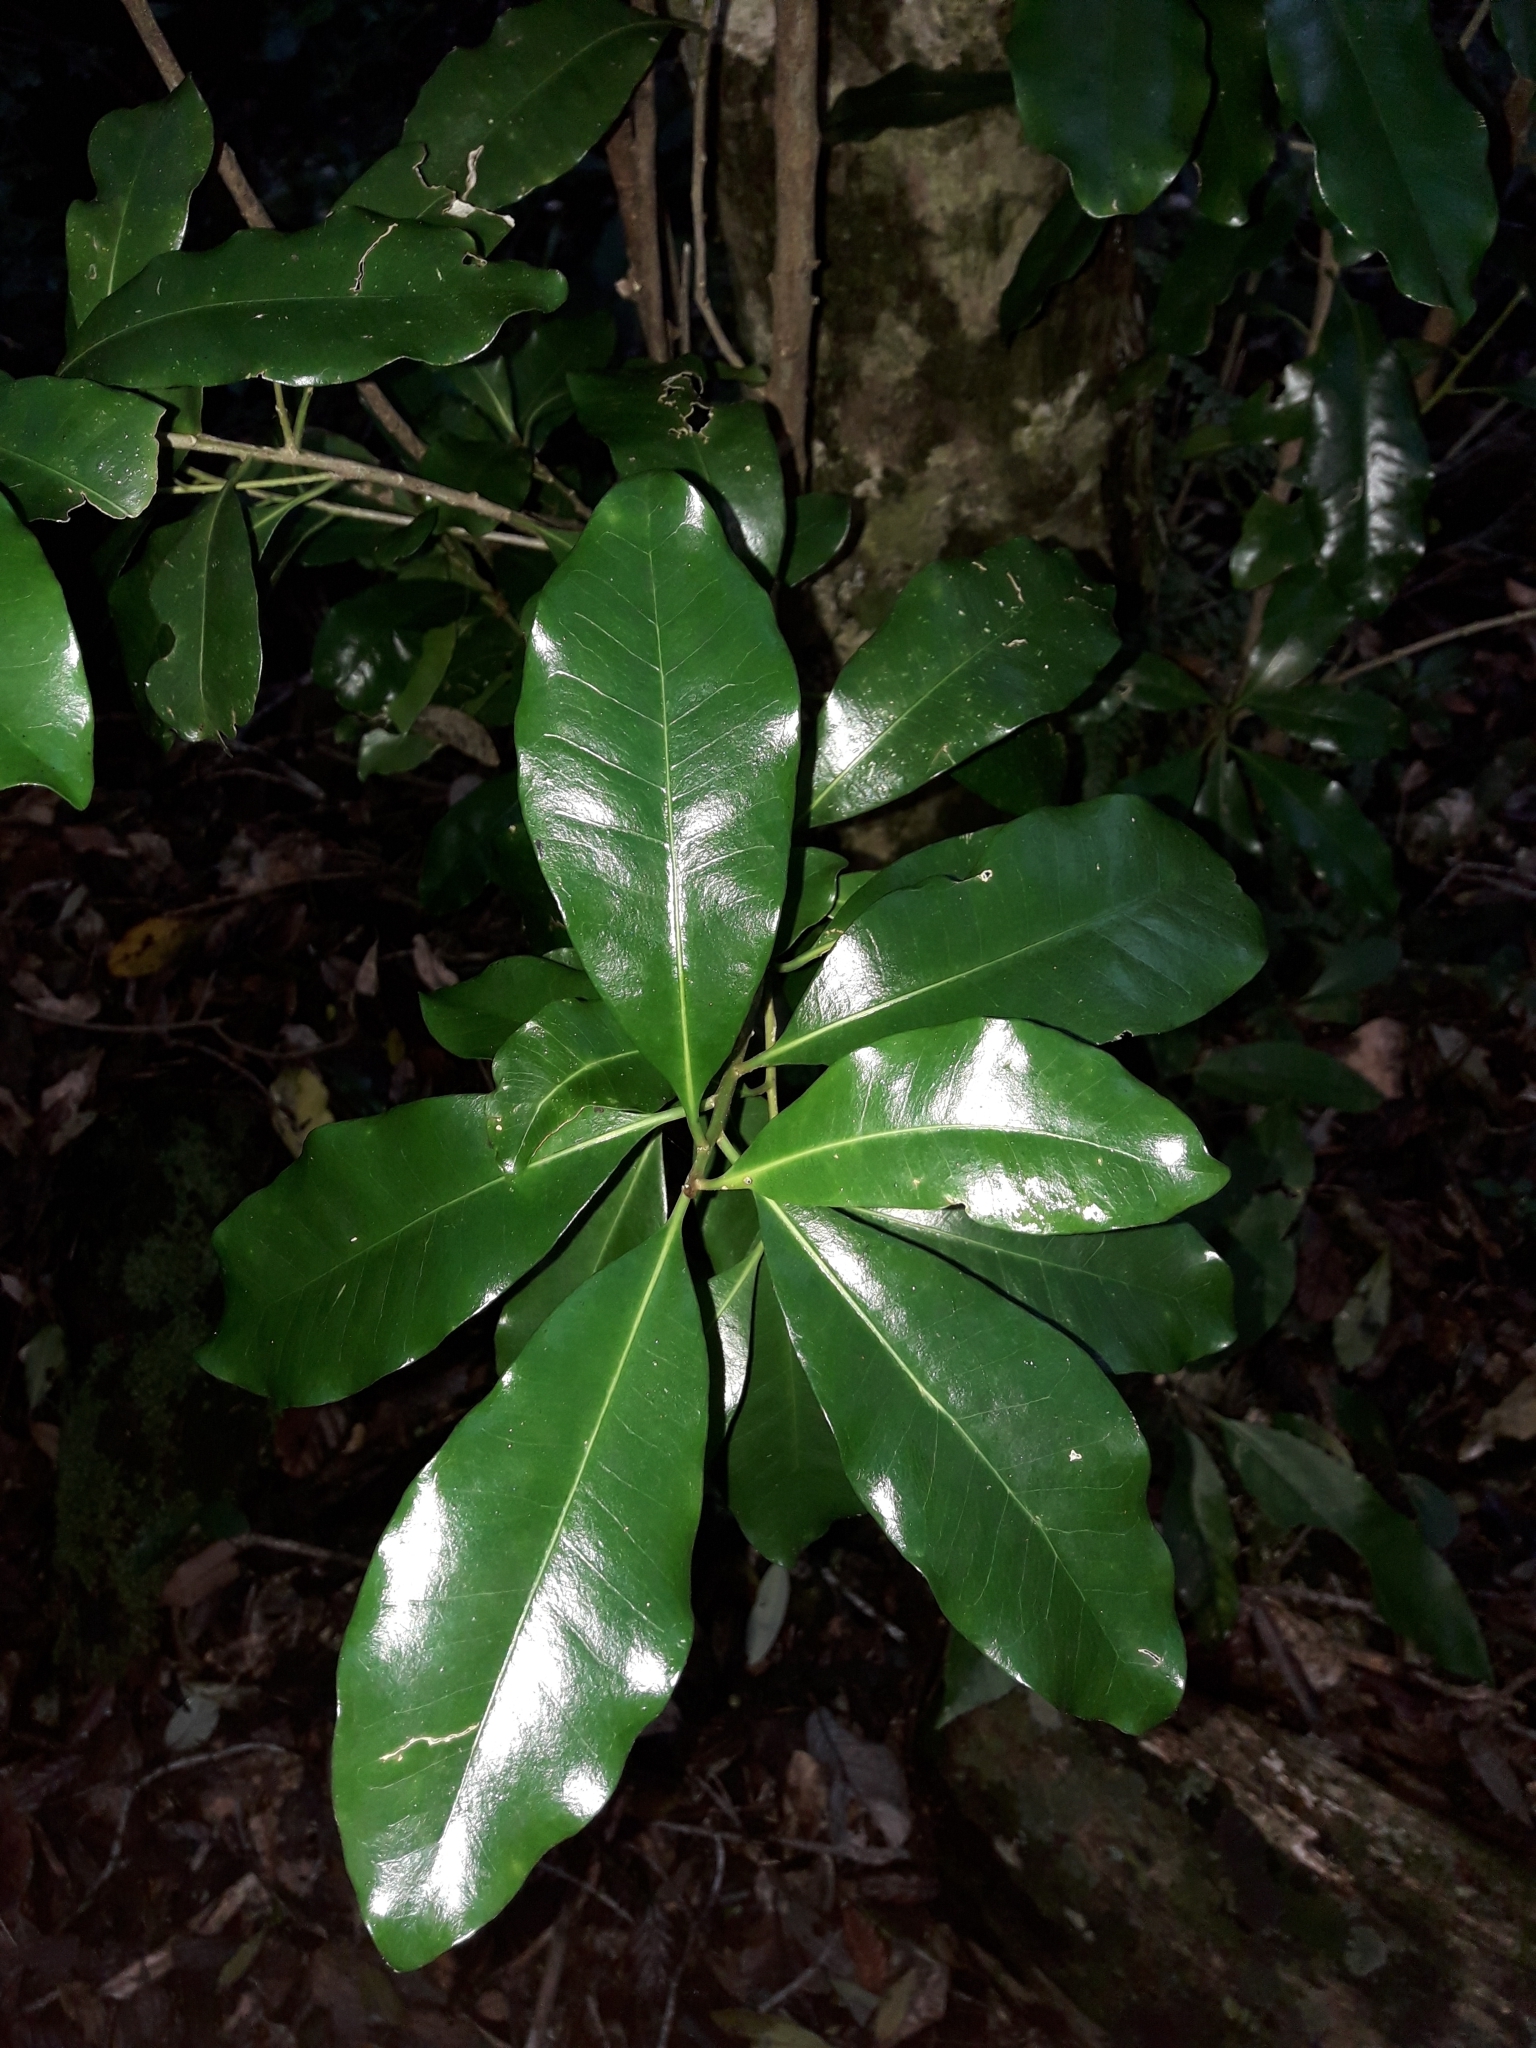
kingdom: Plantae
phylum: Tracheophyta
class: Magnoliopsida
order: Ericales
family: Sapotaceae
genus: Planchonella
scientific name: Planchonella costata
